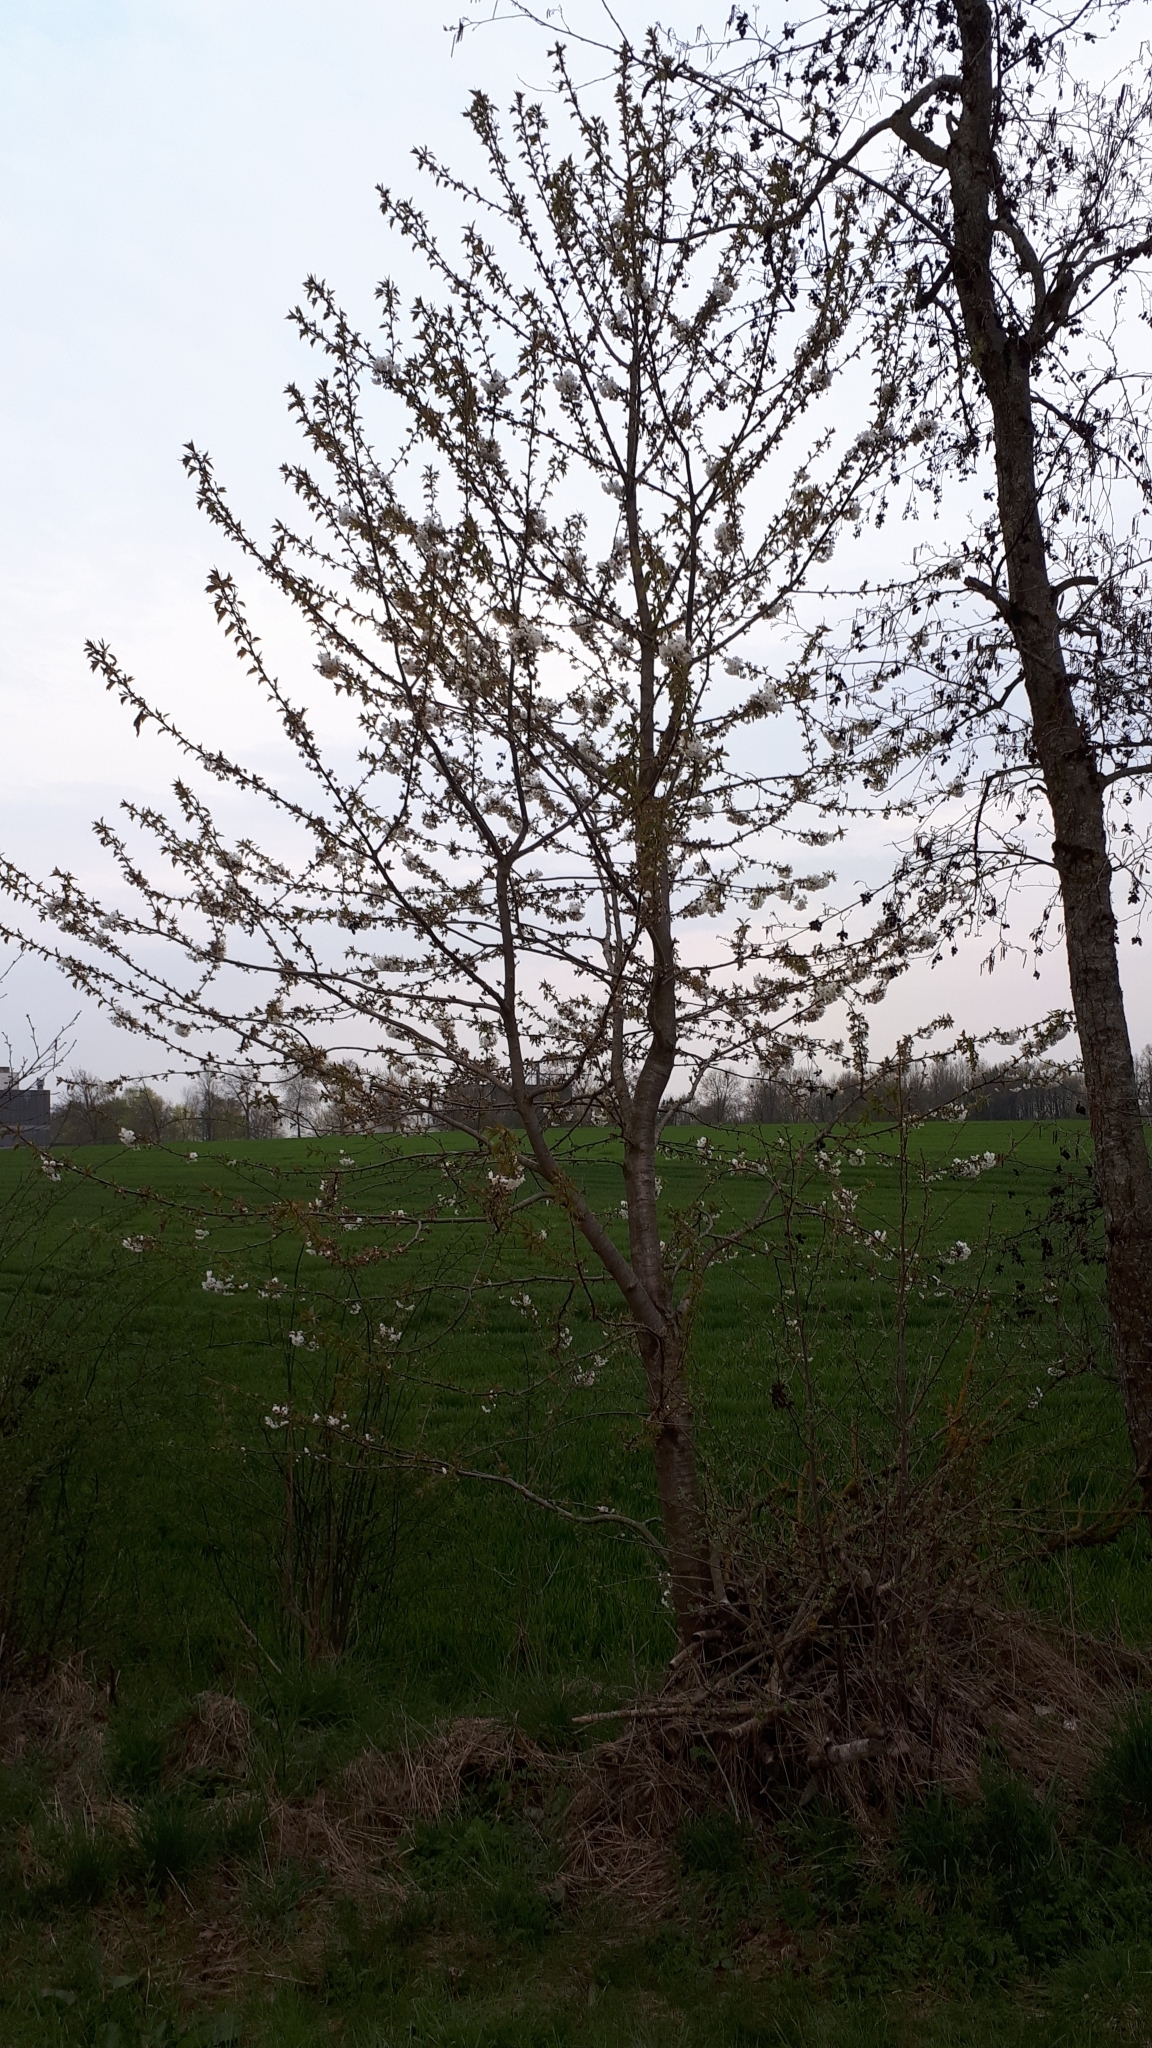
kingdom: Plantae
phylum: Tracheophyta
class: Magnoliopsida
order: Rosales
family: Rosaceae
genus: Prunus
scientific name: Prunus avium
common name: Sweet cherry
